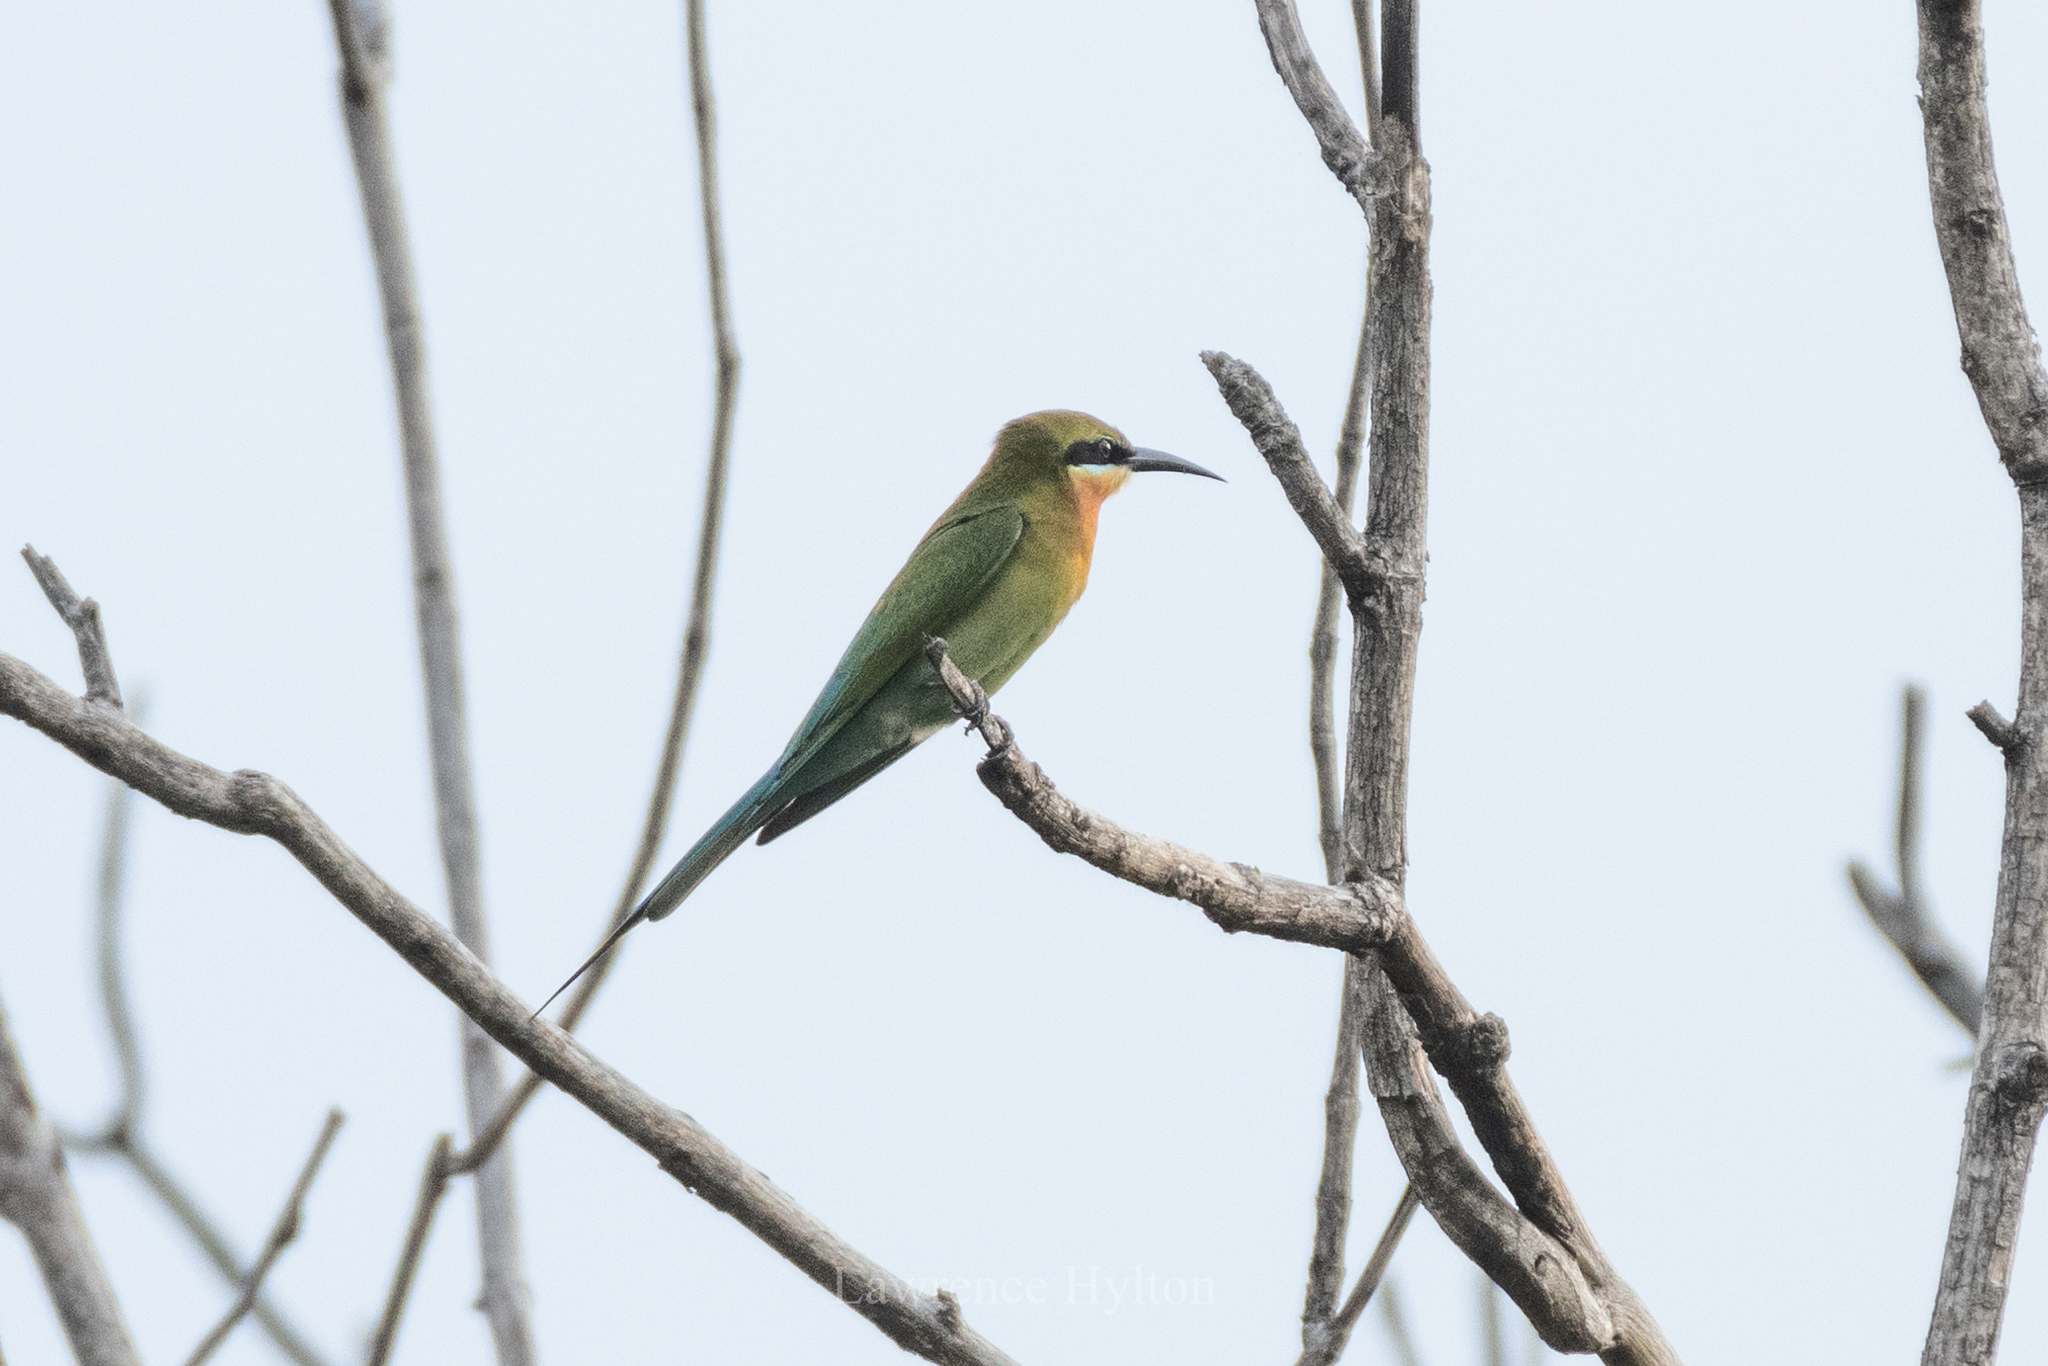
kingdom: Animalia
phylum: Chordata
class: Aves
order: Coraciiformes
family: Meropidae
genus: Merops
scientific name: Merops philippinus
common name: Blue-tailed bee-eater
